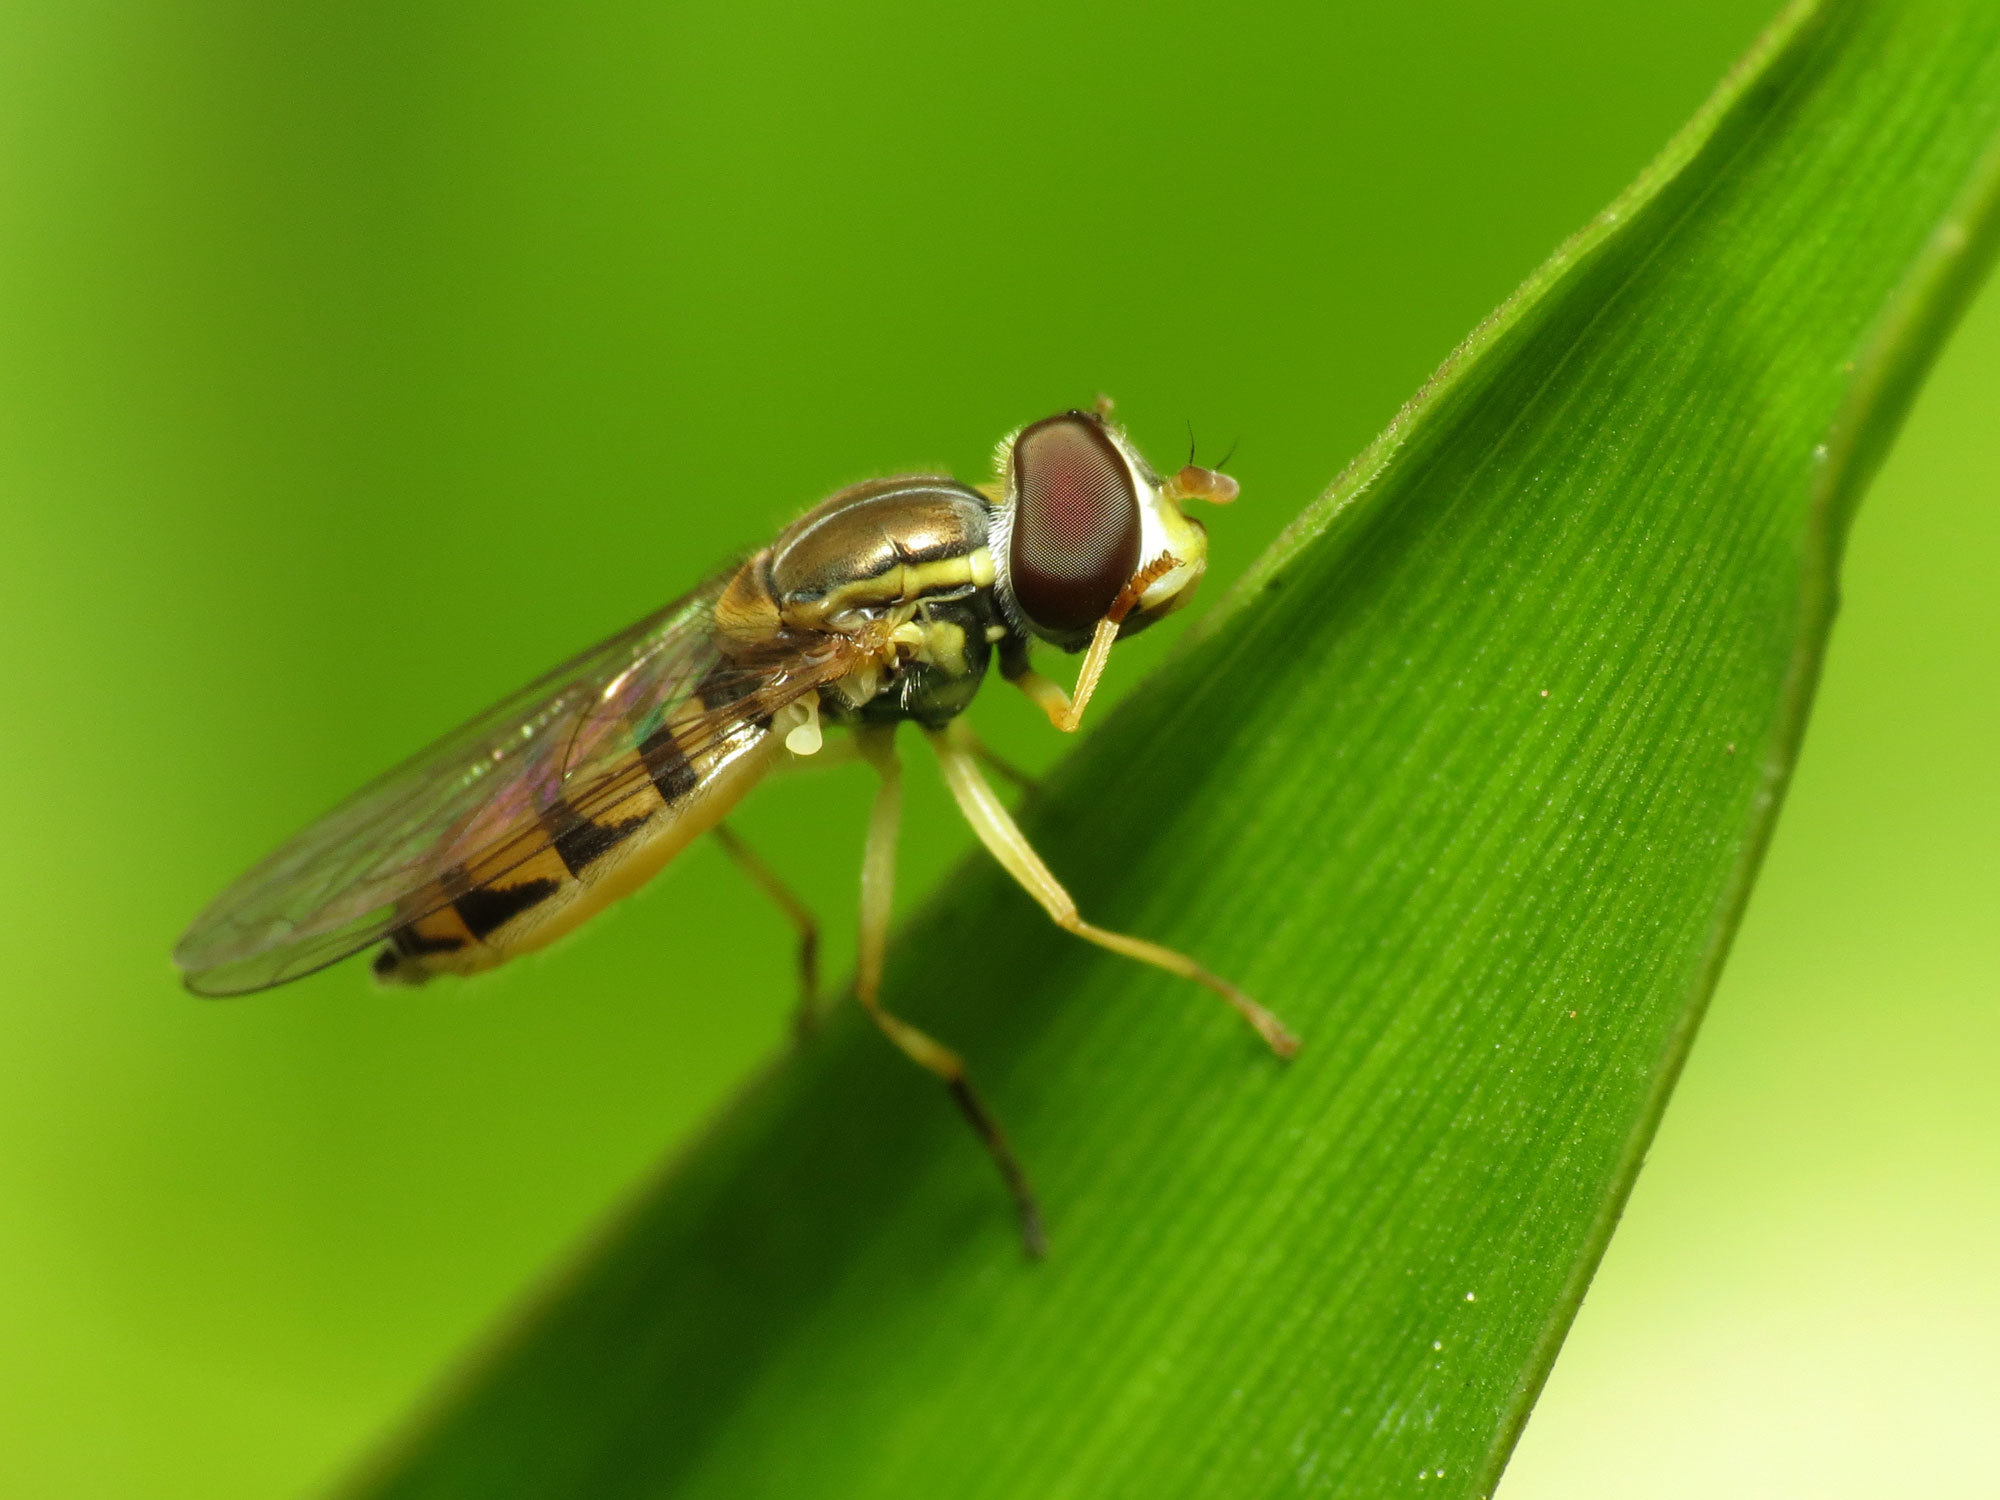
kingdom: Animalia
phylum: Arthropoda
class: Insecta
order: Diptera
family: Syrphidae
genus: Toxomerus
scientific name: Toxomerus marginatus
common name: Syrphid fly
